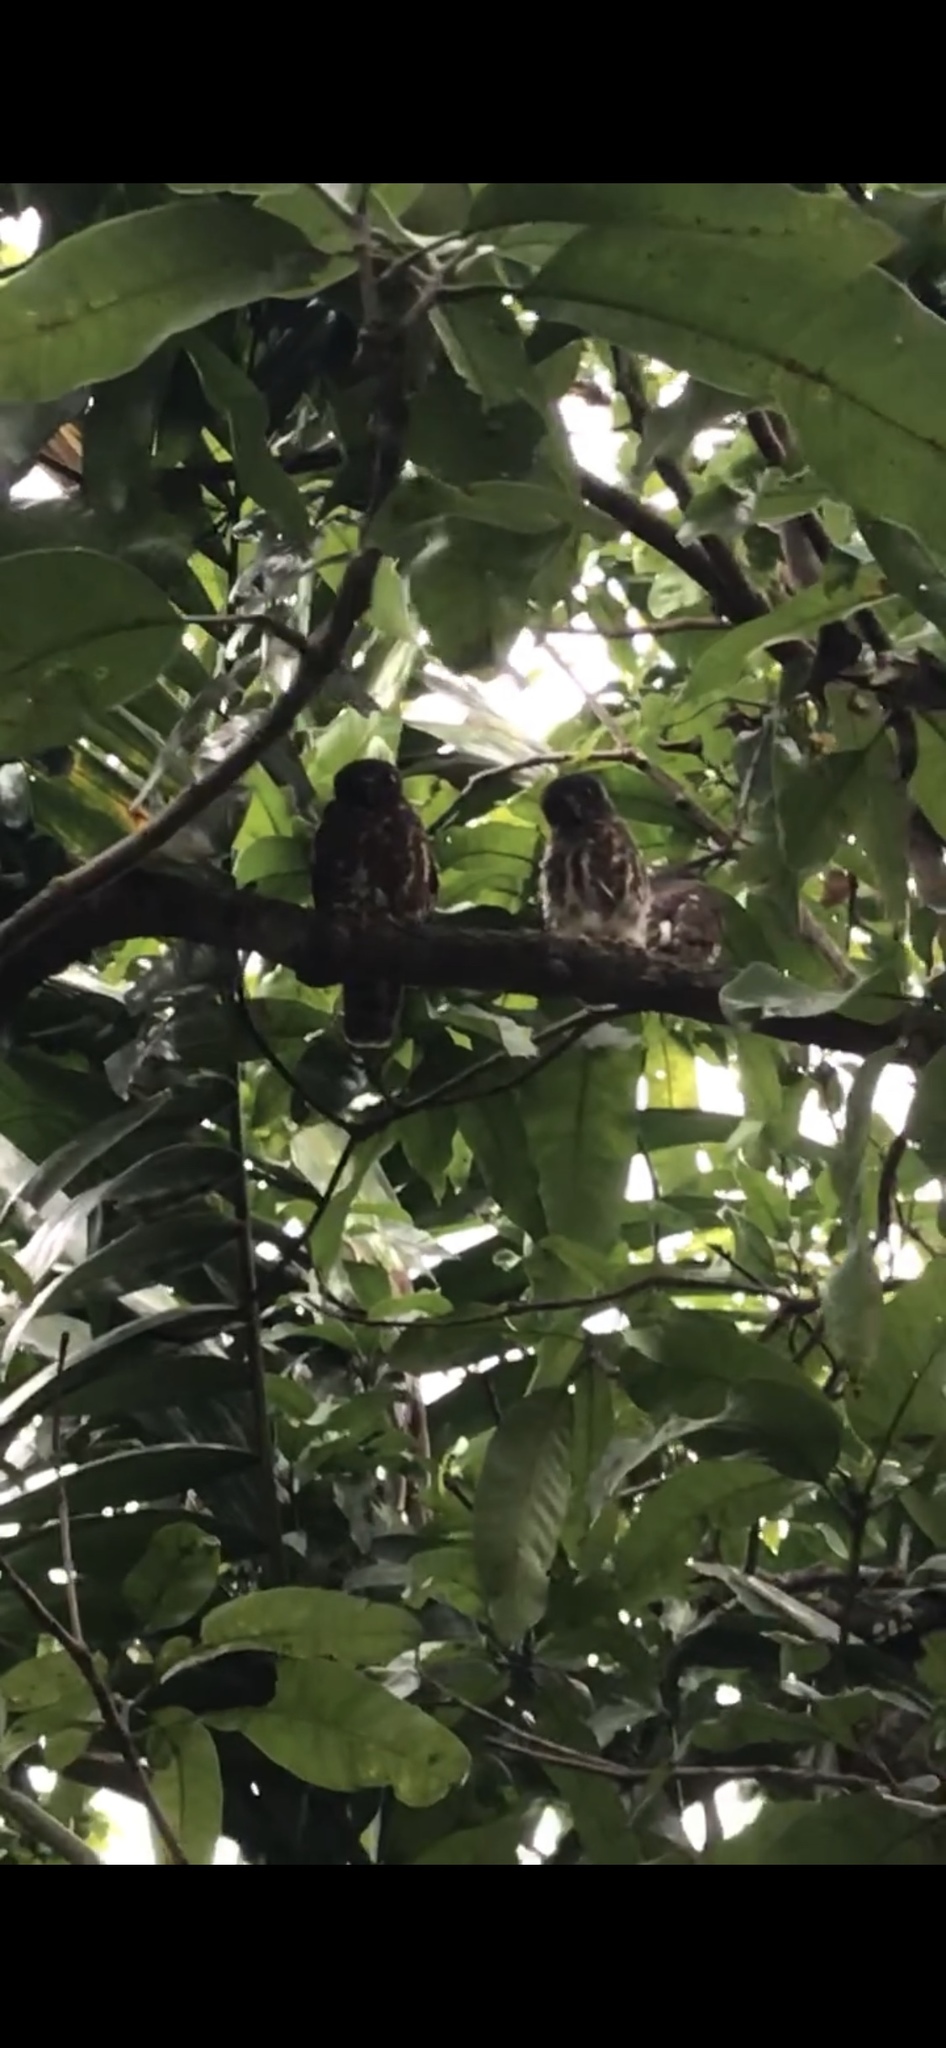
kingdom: Animalia
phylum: Chordata
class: Aves
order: Strigiformes
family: Strigidae
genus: Ninox
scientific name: Ninox scutulata
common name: Brown hawk-owl
